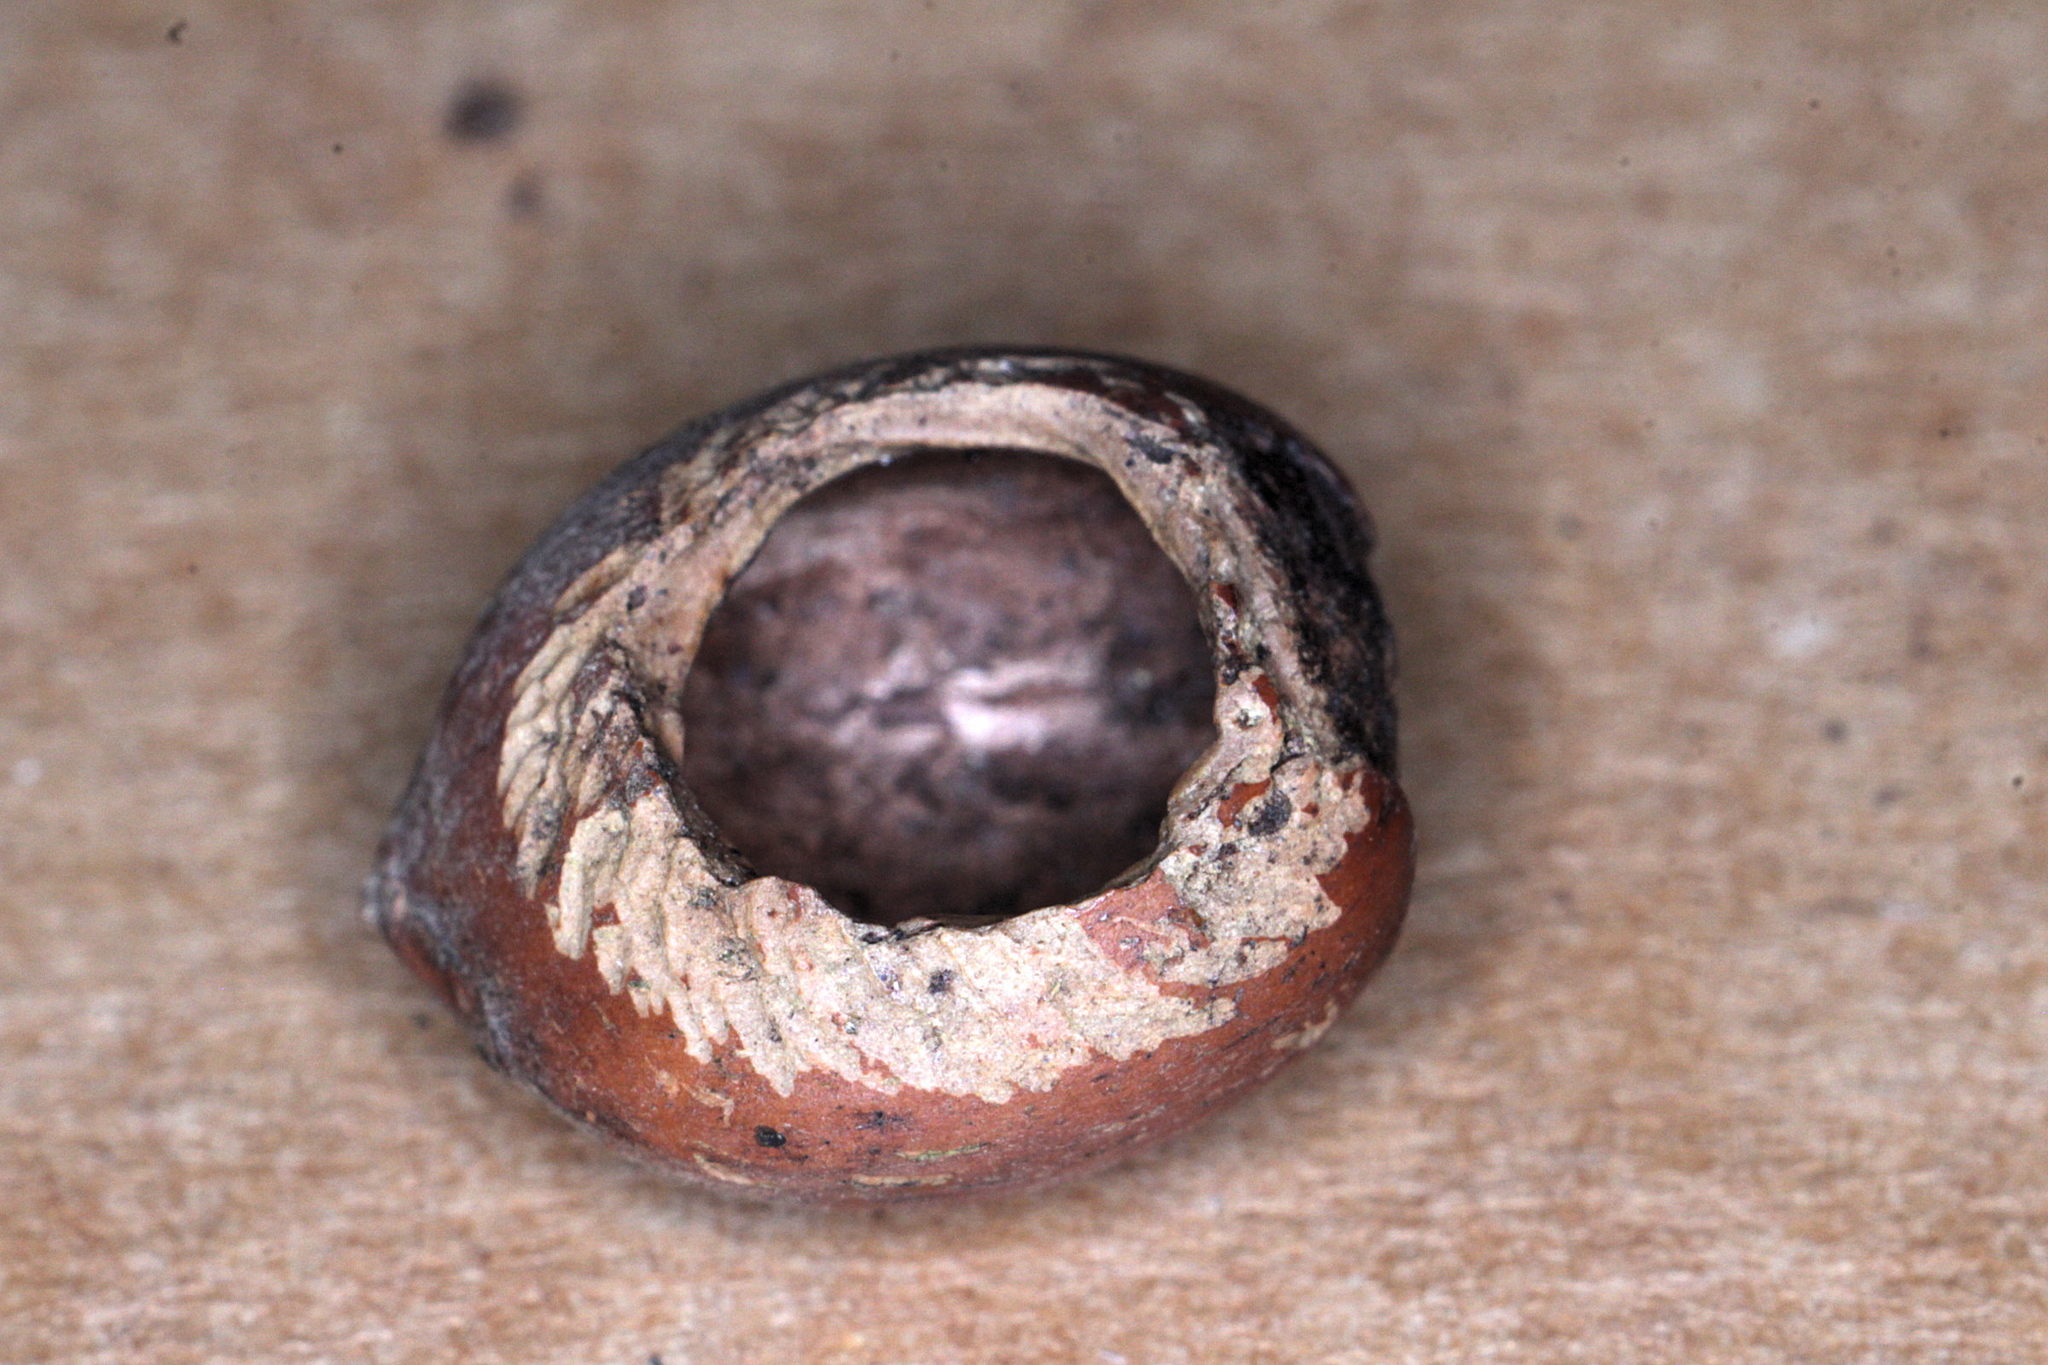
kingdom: Animalia
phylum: Chordata
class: Mammalia
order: Rodentia
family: Gliridae
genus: Muscardinus
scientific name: Muscardinus avellanarius
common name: Hazel dormouse
